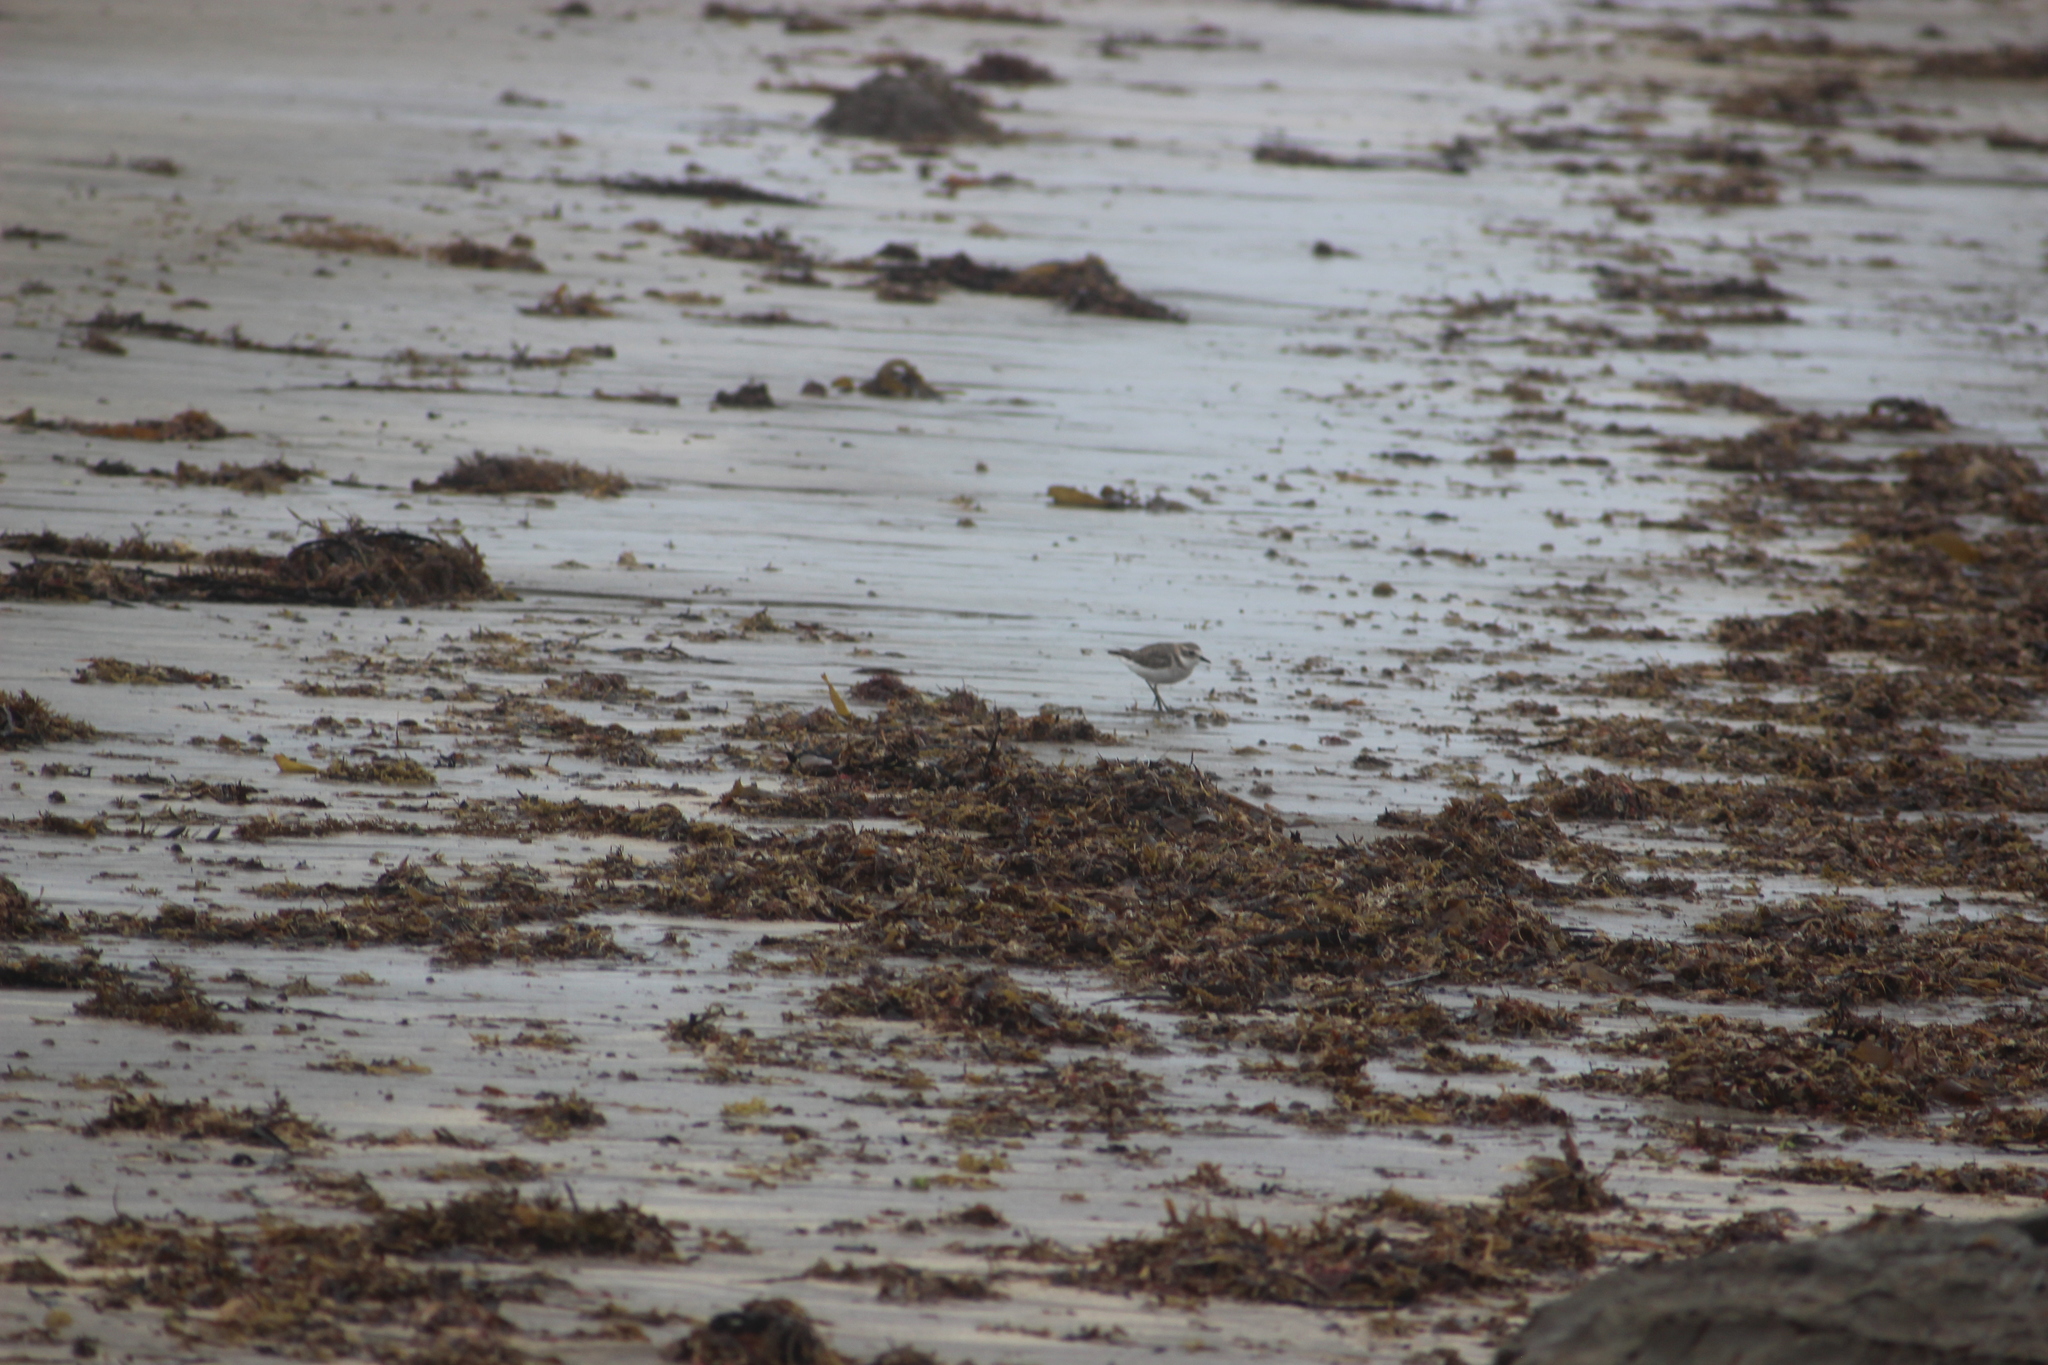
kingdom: Animalia
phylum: Chordata
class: Aves
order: Charadriiformes
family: Charadriidae
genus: Anarhynchus
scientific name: Anarhynchus
